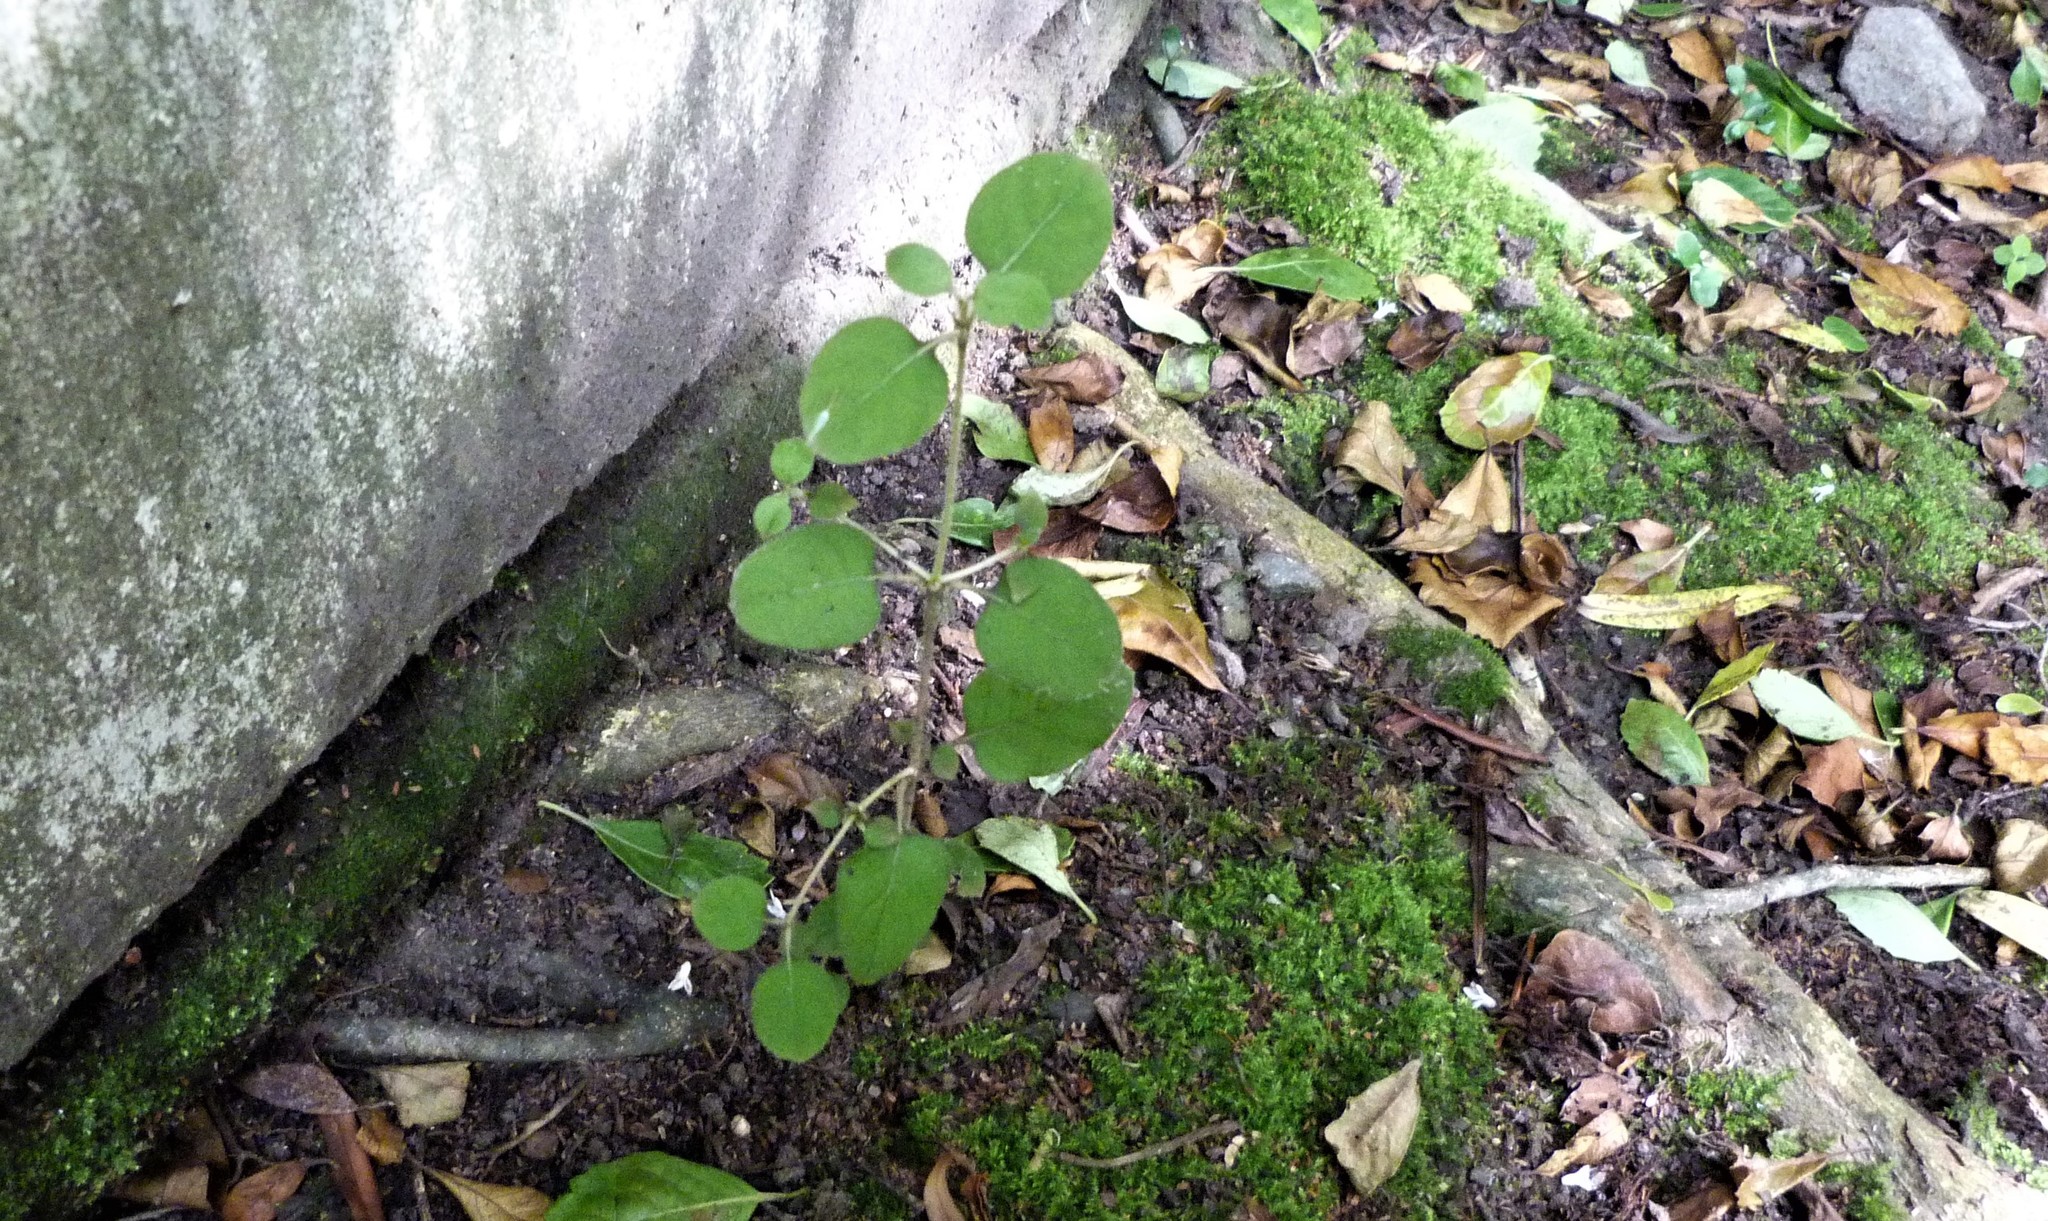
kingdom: Plantae
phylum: Tracheophyta
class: Magnoliopsida
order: Gentianales
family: Rubiaceae
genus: Coprosma
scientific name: Coprosma rotundifolia
